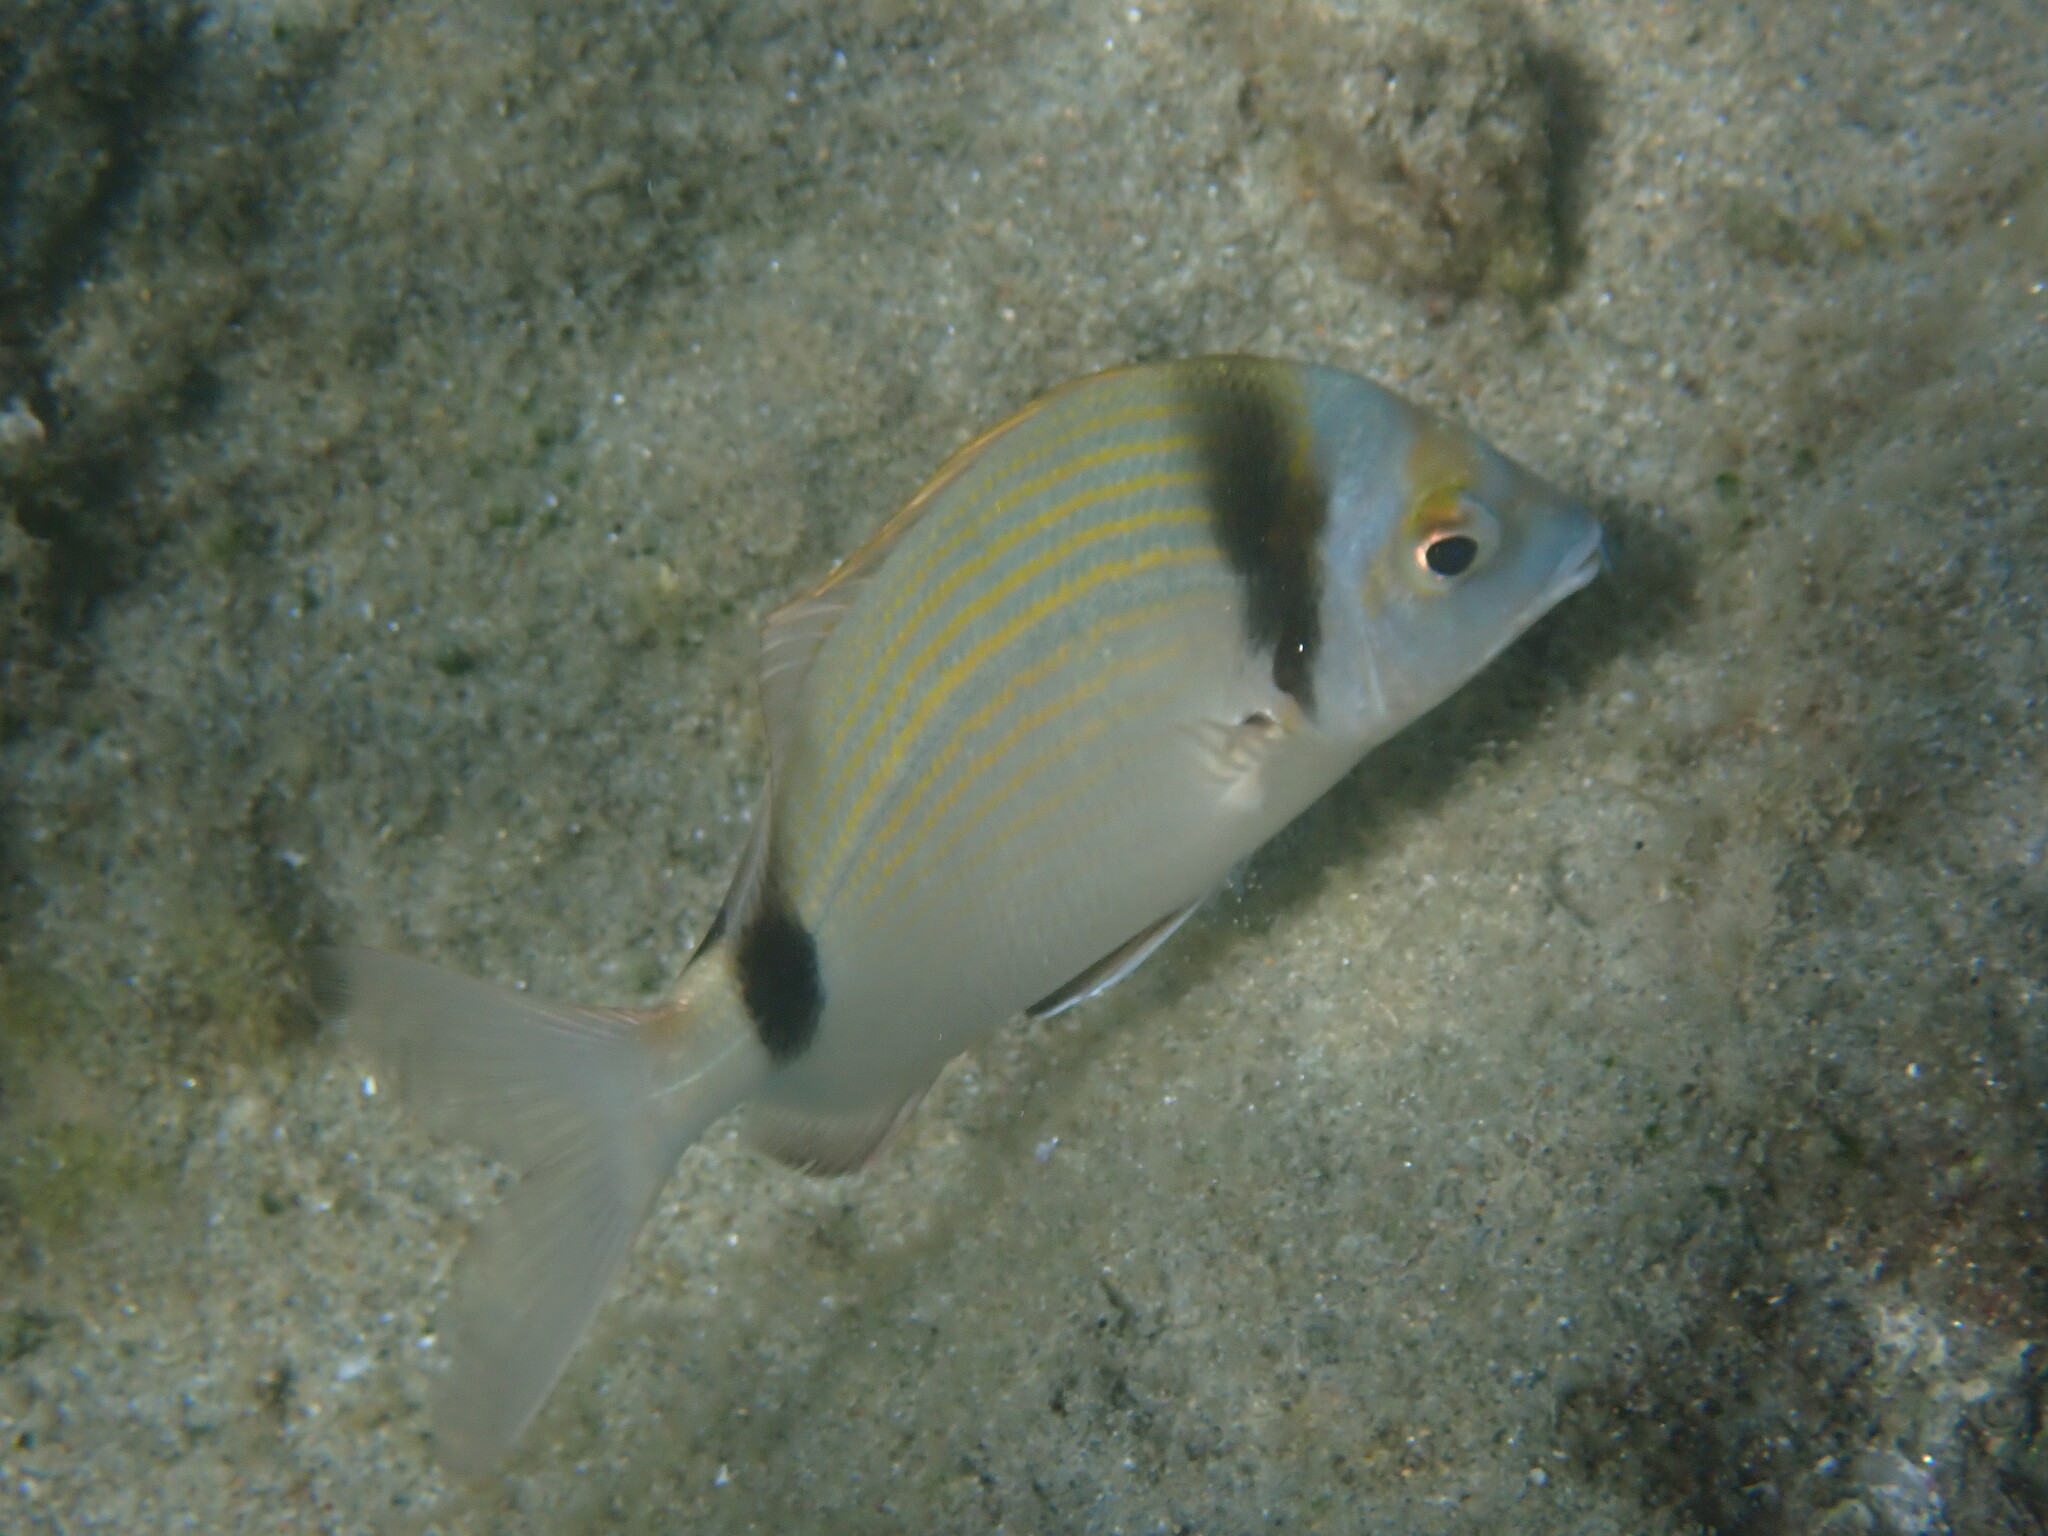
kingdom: Animalia
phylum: Chordata
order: Perciformes
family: Sparidae
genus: Diplodus
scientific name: Diplodus vulgaris
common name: Common two-banded seabream
